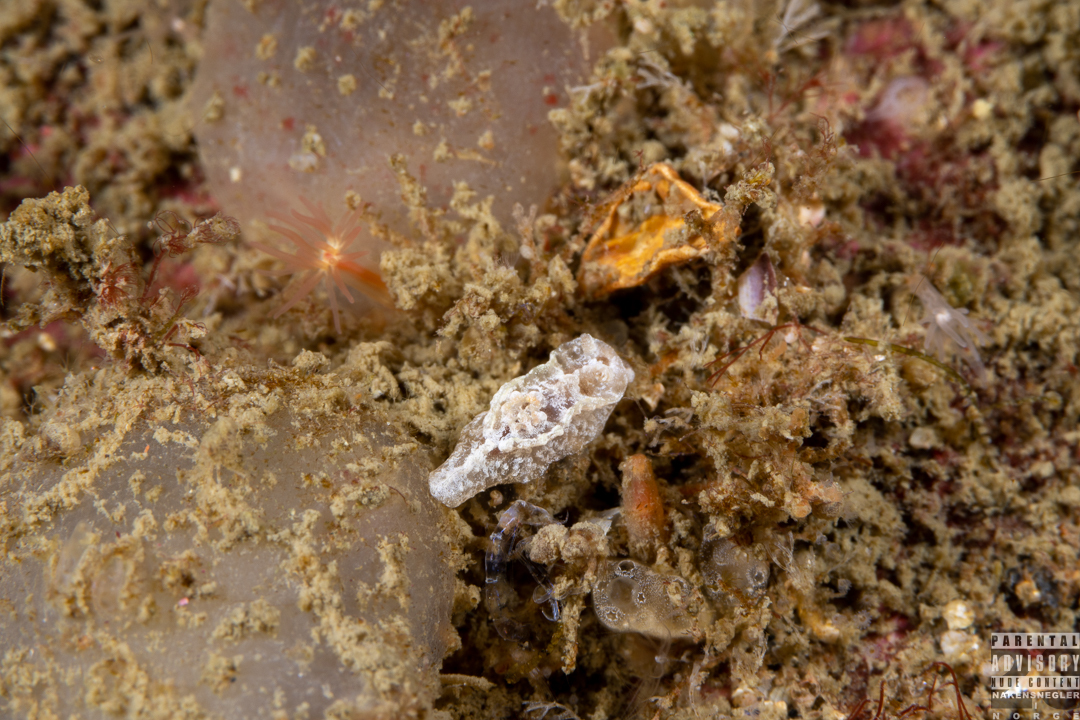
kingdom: Animalia
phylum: Mollusca
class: Gastropoda
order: Nudibranchia
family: Goniodorididae
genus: Pelagella
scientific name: Pelagella castanea
